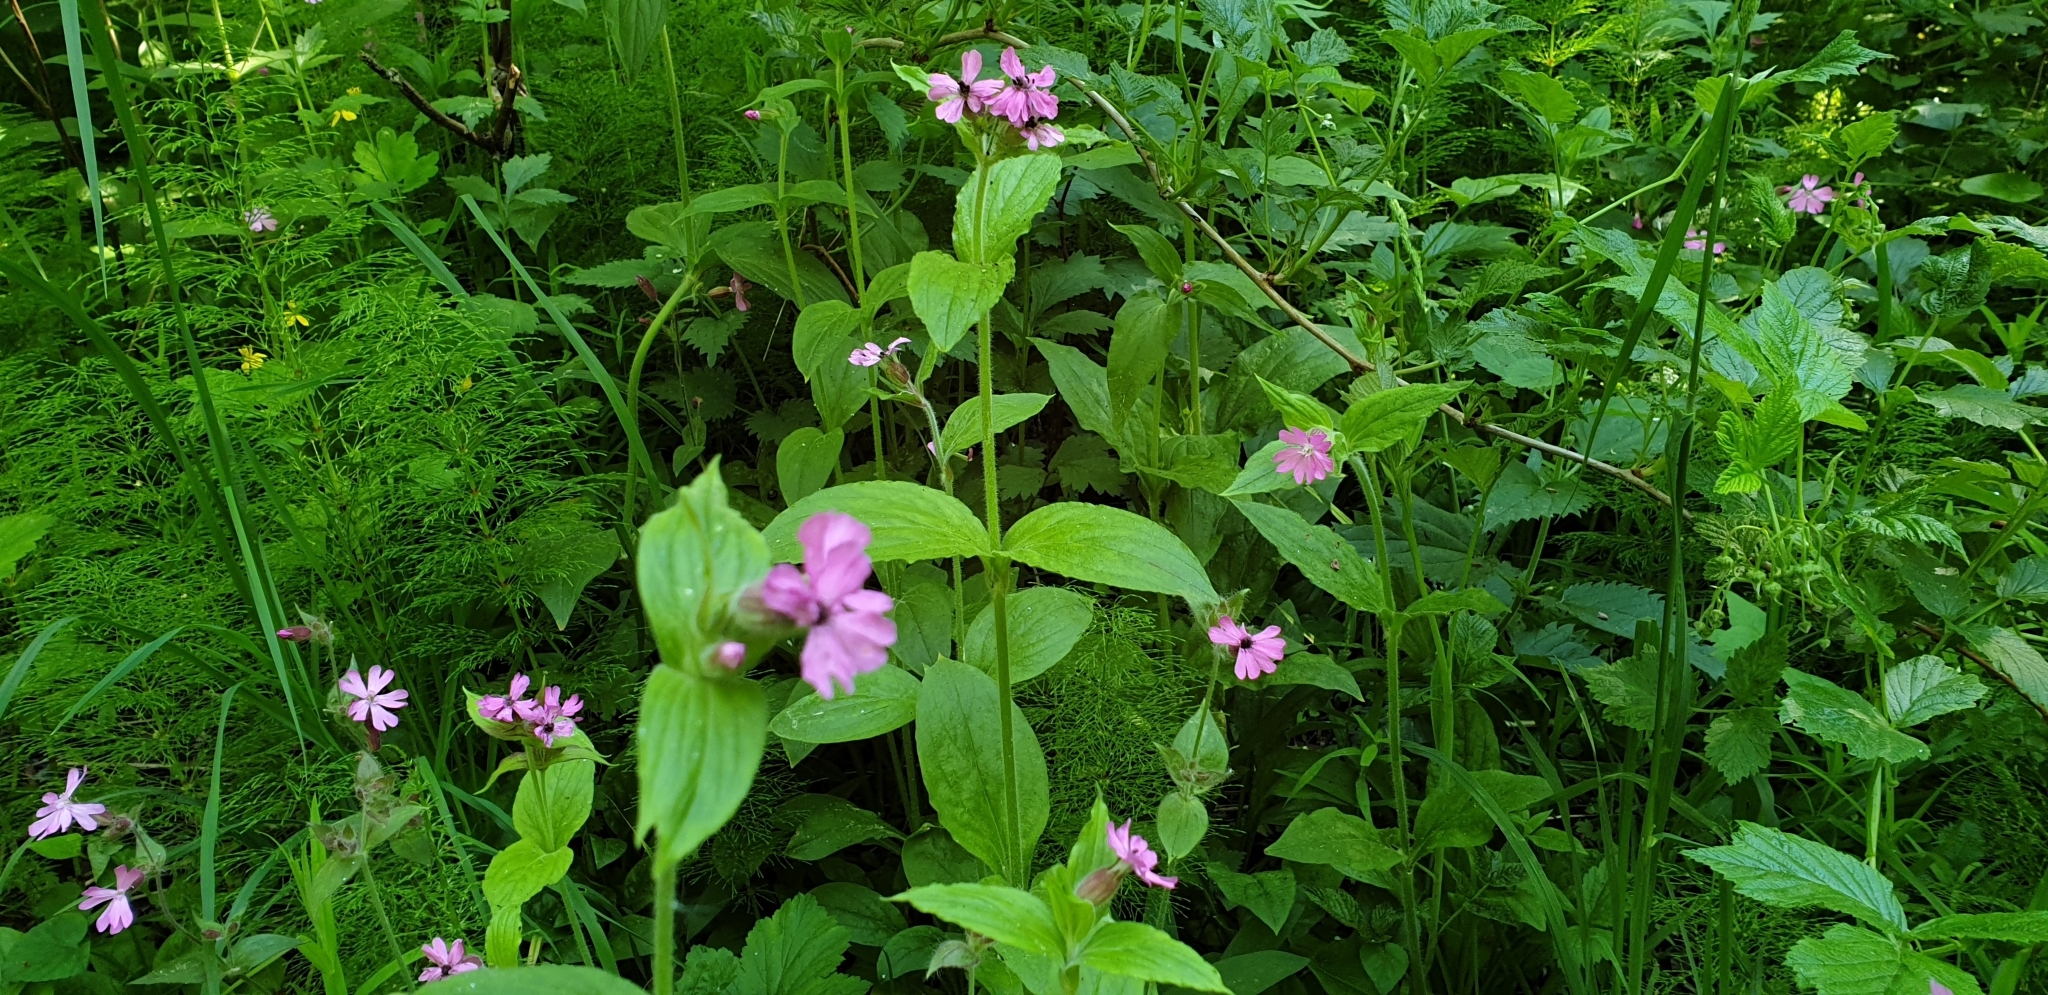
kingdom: Plantae
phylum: Tracheophyta
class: Magnoliopsida
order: Caryophyllales
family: Caryophyllaceae
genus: Silene
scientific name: Silene dioica
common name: Red campion
